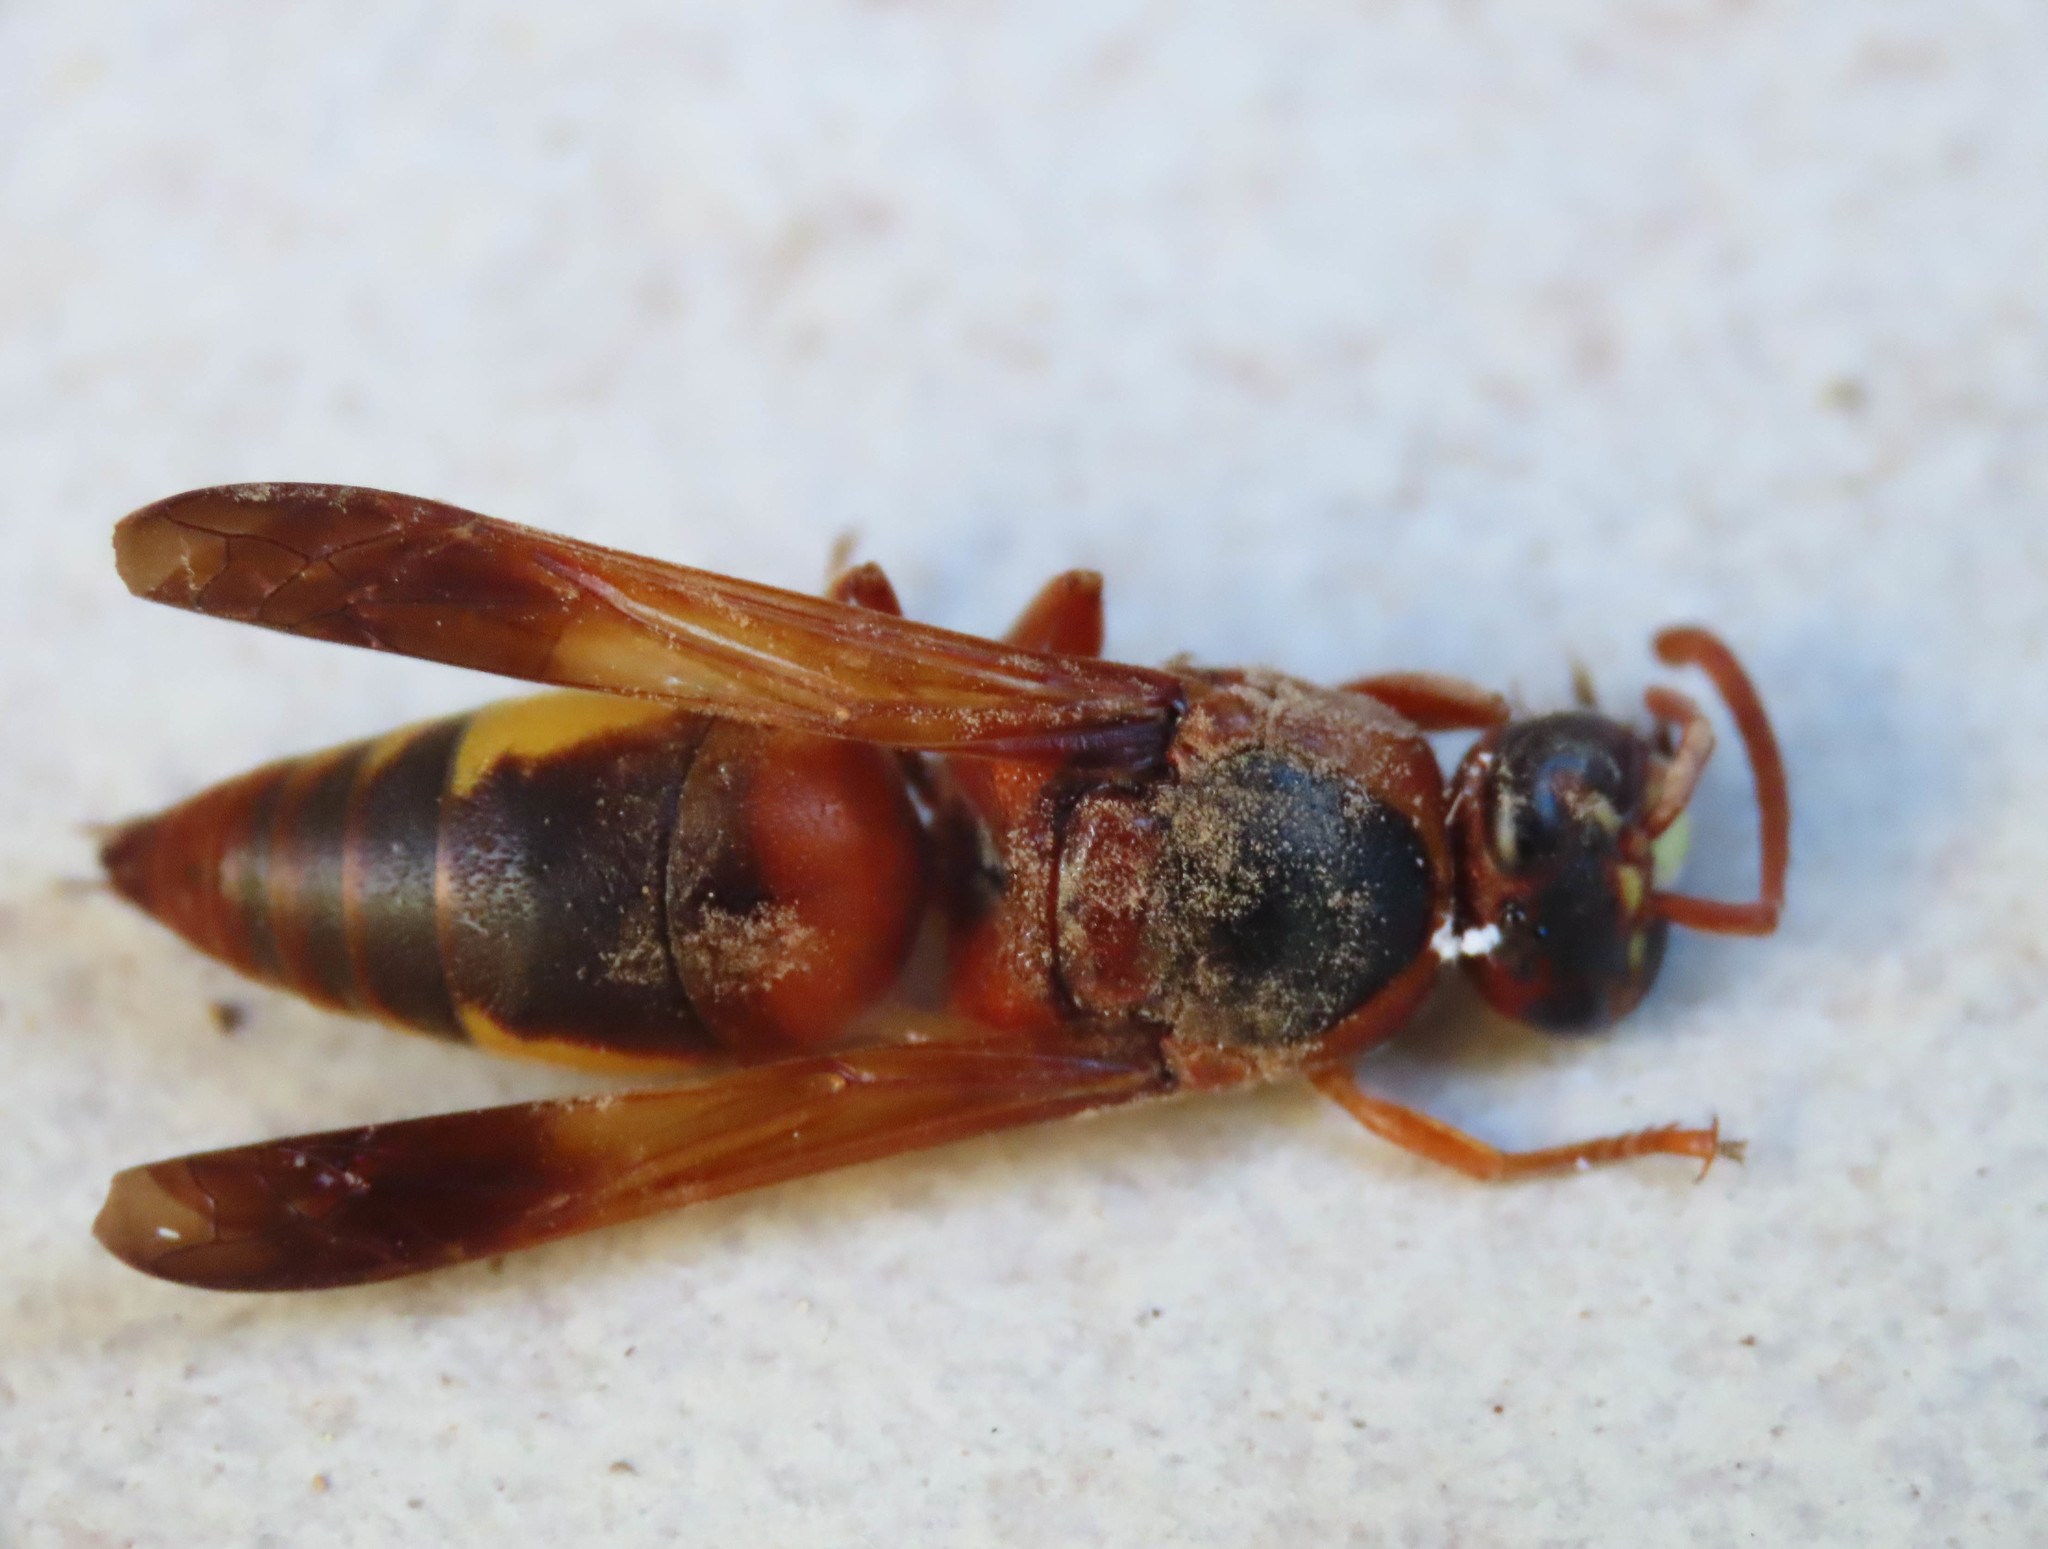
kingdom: Animalia
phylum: Arthropoda
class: Insecta
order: Hymenoptera
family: Eumenidae
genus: Rhynchium
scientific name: Rhynchium oculatum
